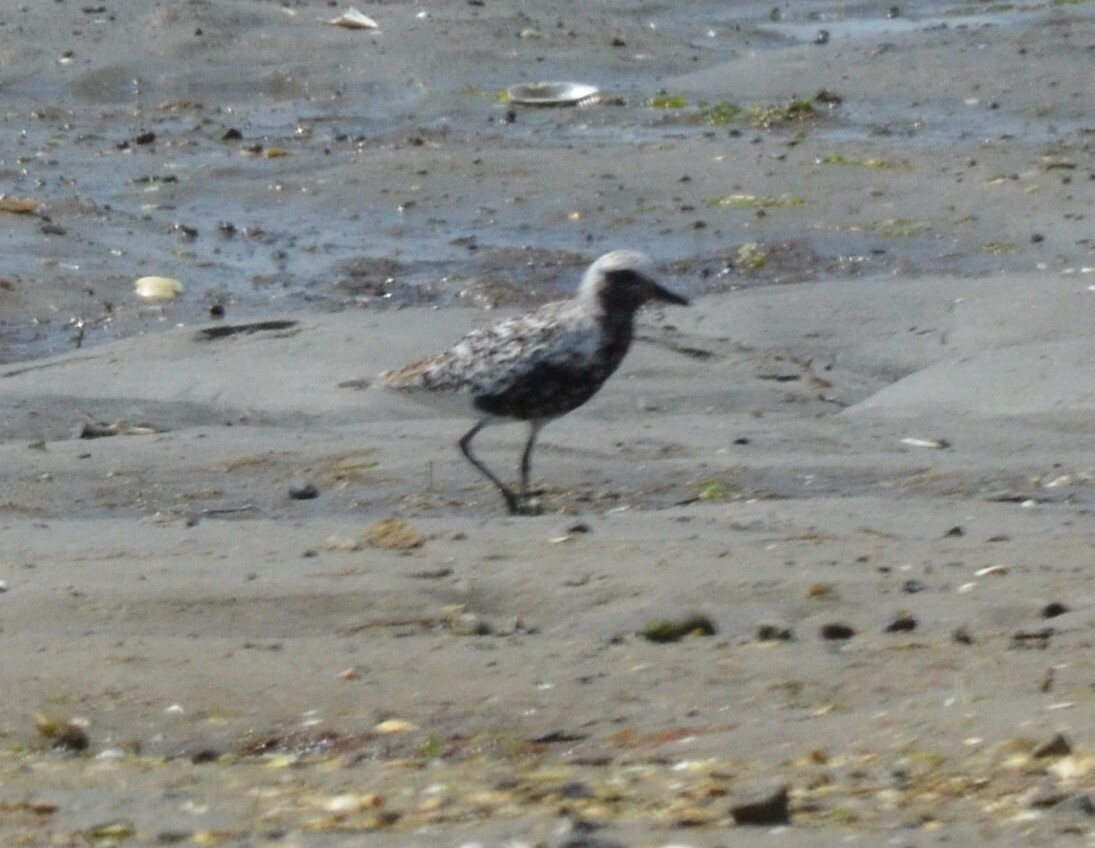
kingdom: Animalia
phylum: Chordata
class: Aves
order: Charadriiformes
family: Charadriidae
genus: Pluvialis
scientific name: Pluvialis squatarola
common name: Grey plover
